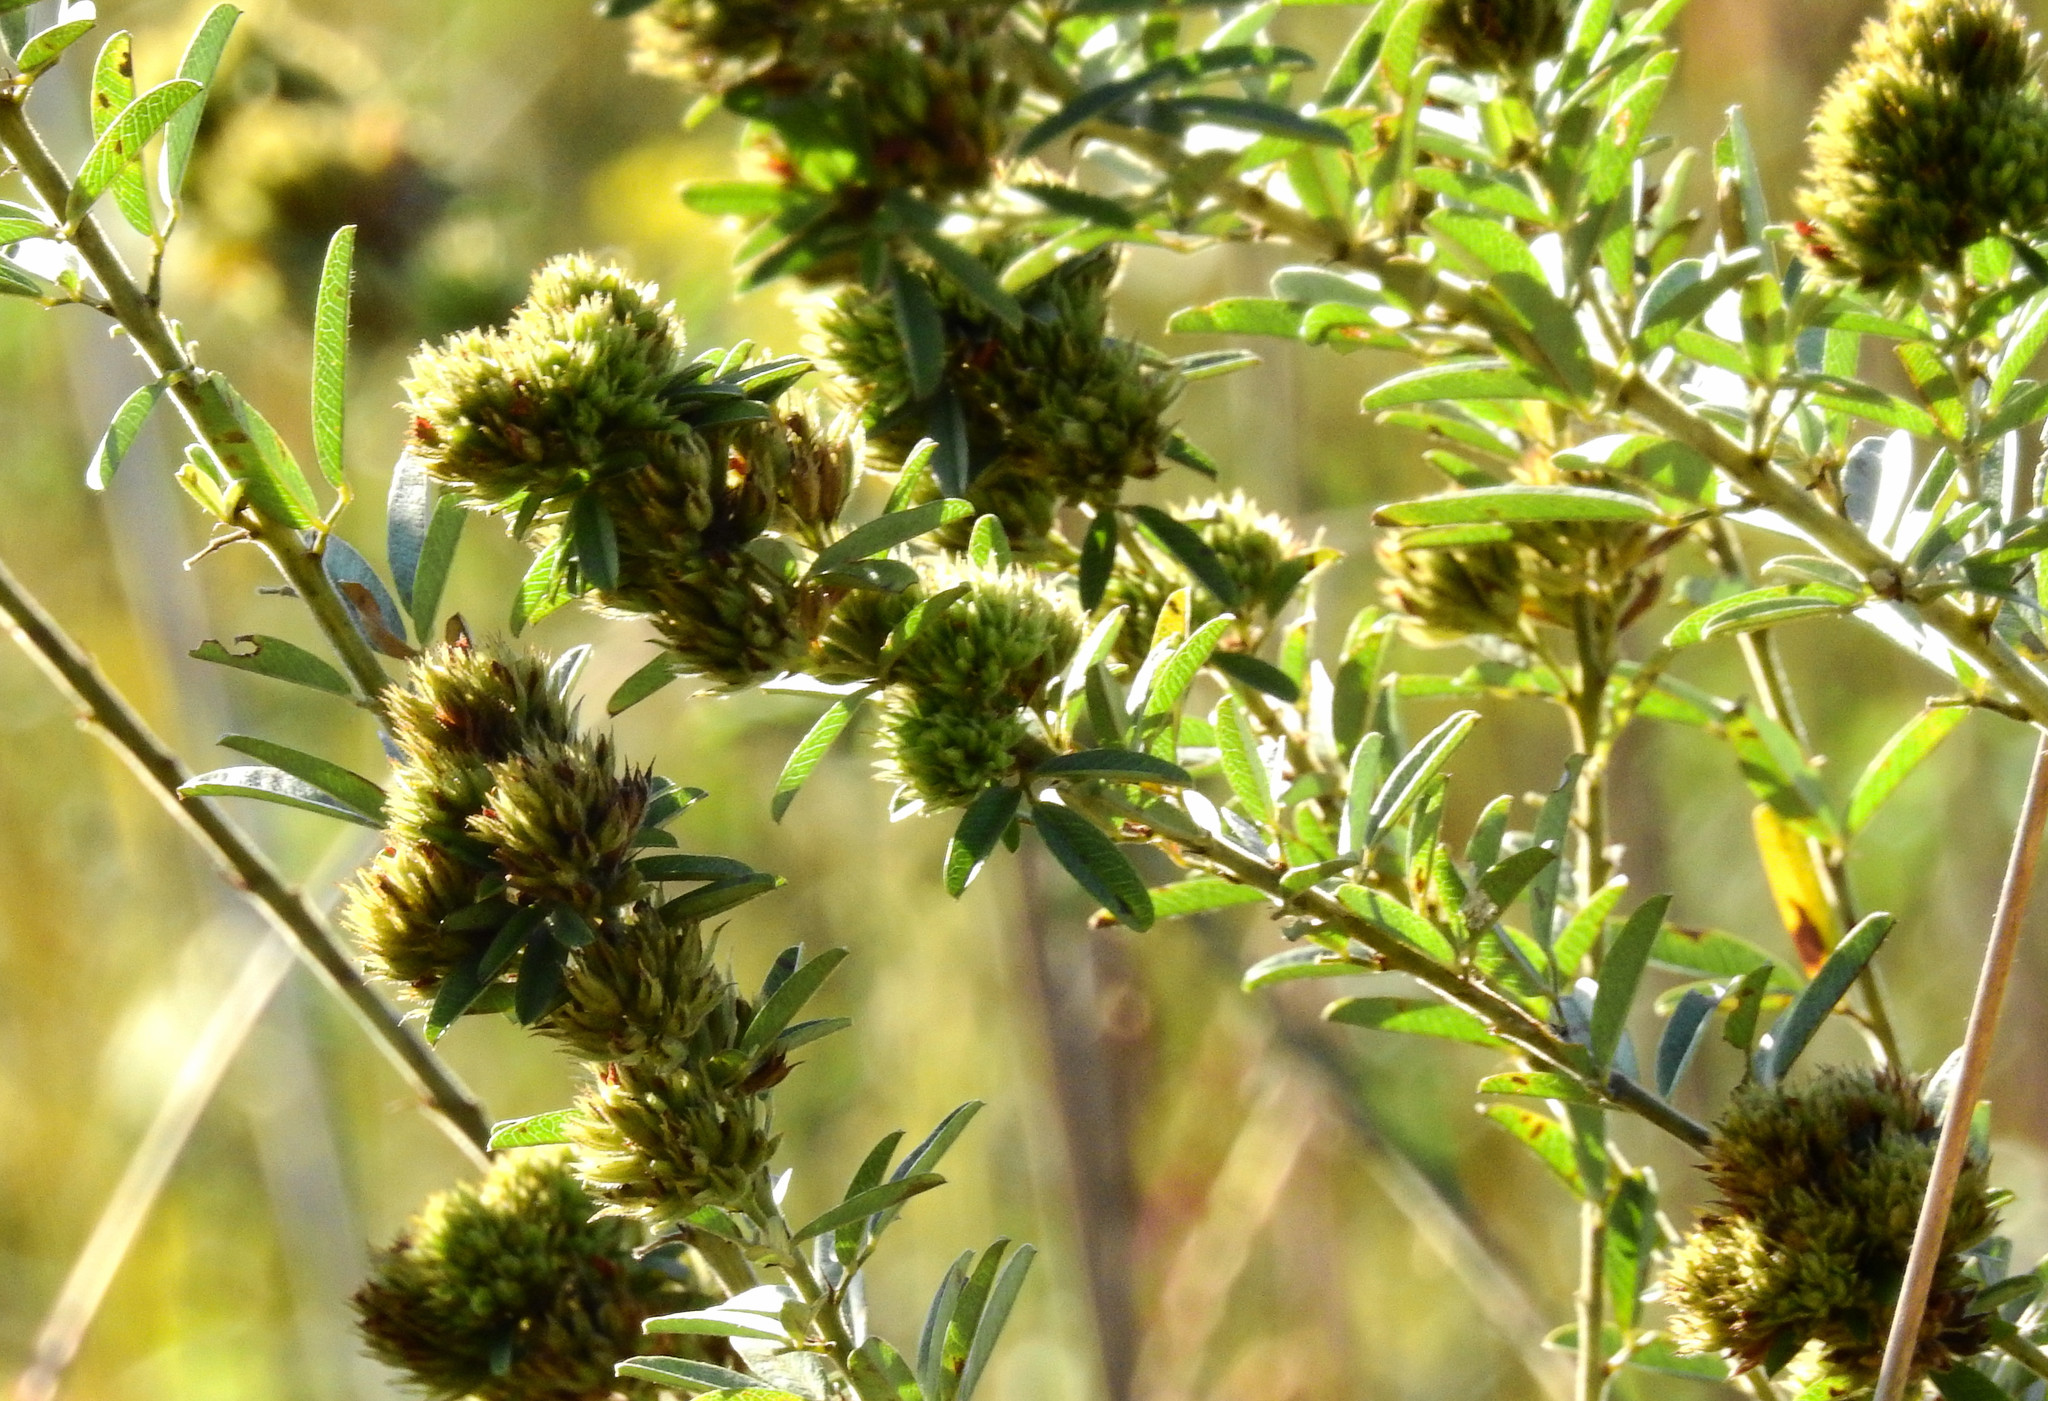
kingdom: Plantae
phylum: Tracheophyta
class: Magnoliopsida
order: Fabales
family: Fabaceae
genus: Lespedeza
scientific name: Lespedeza capitata
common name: Dusty clover
